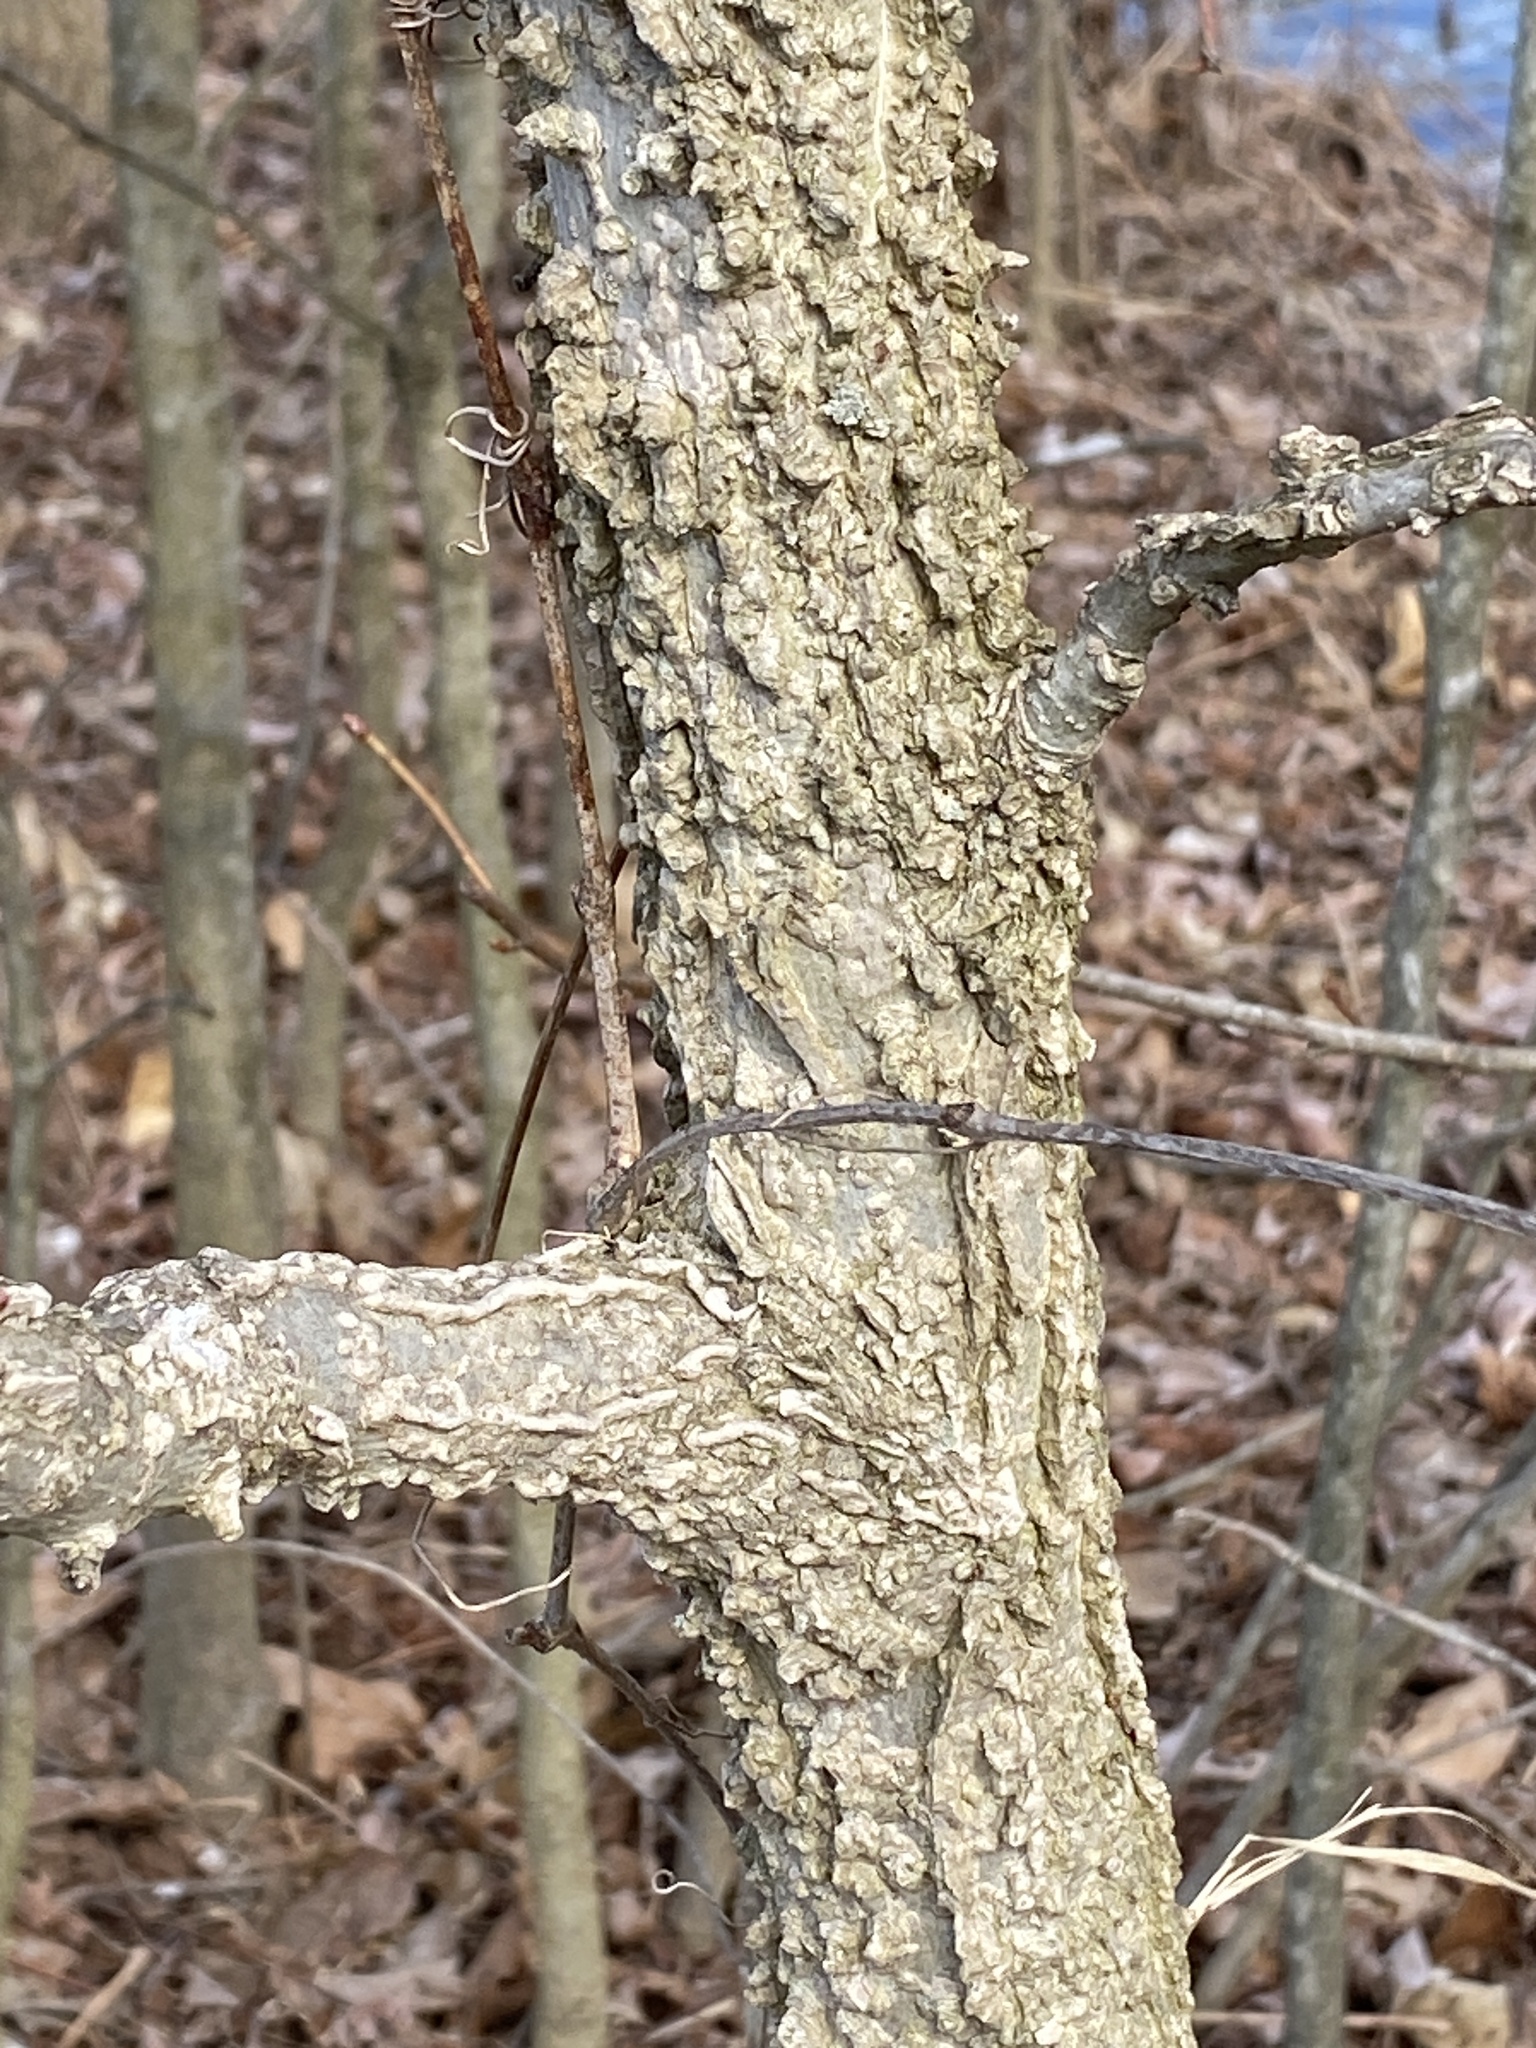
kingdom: Plantae
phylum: Tracheophyta
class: Magnoliopsida
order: Saxifragales
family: Altingiaceae
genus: Liquidambar
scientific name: Liquidambar styraciflua
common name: Sweet gum
